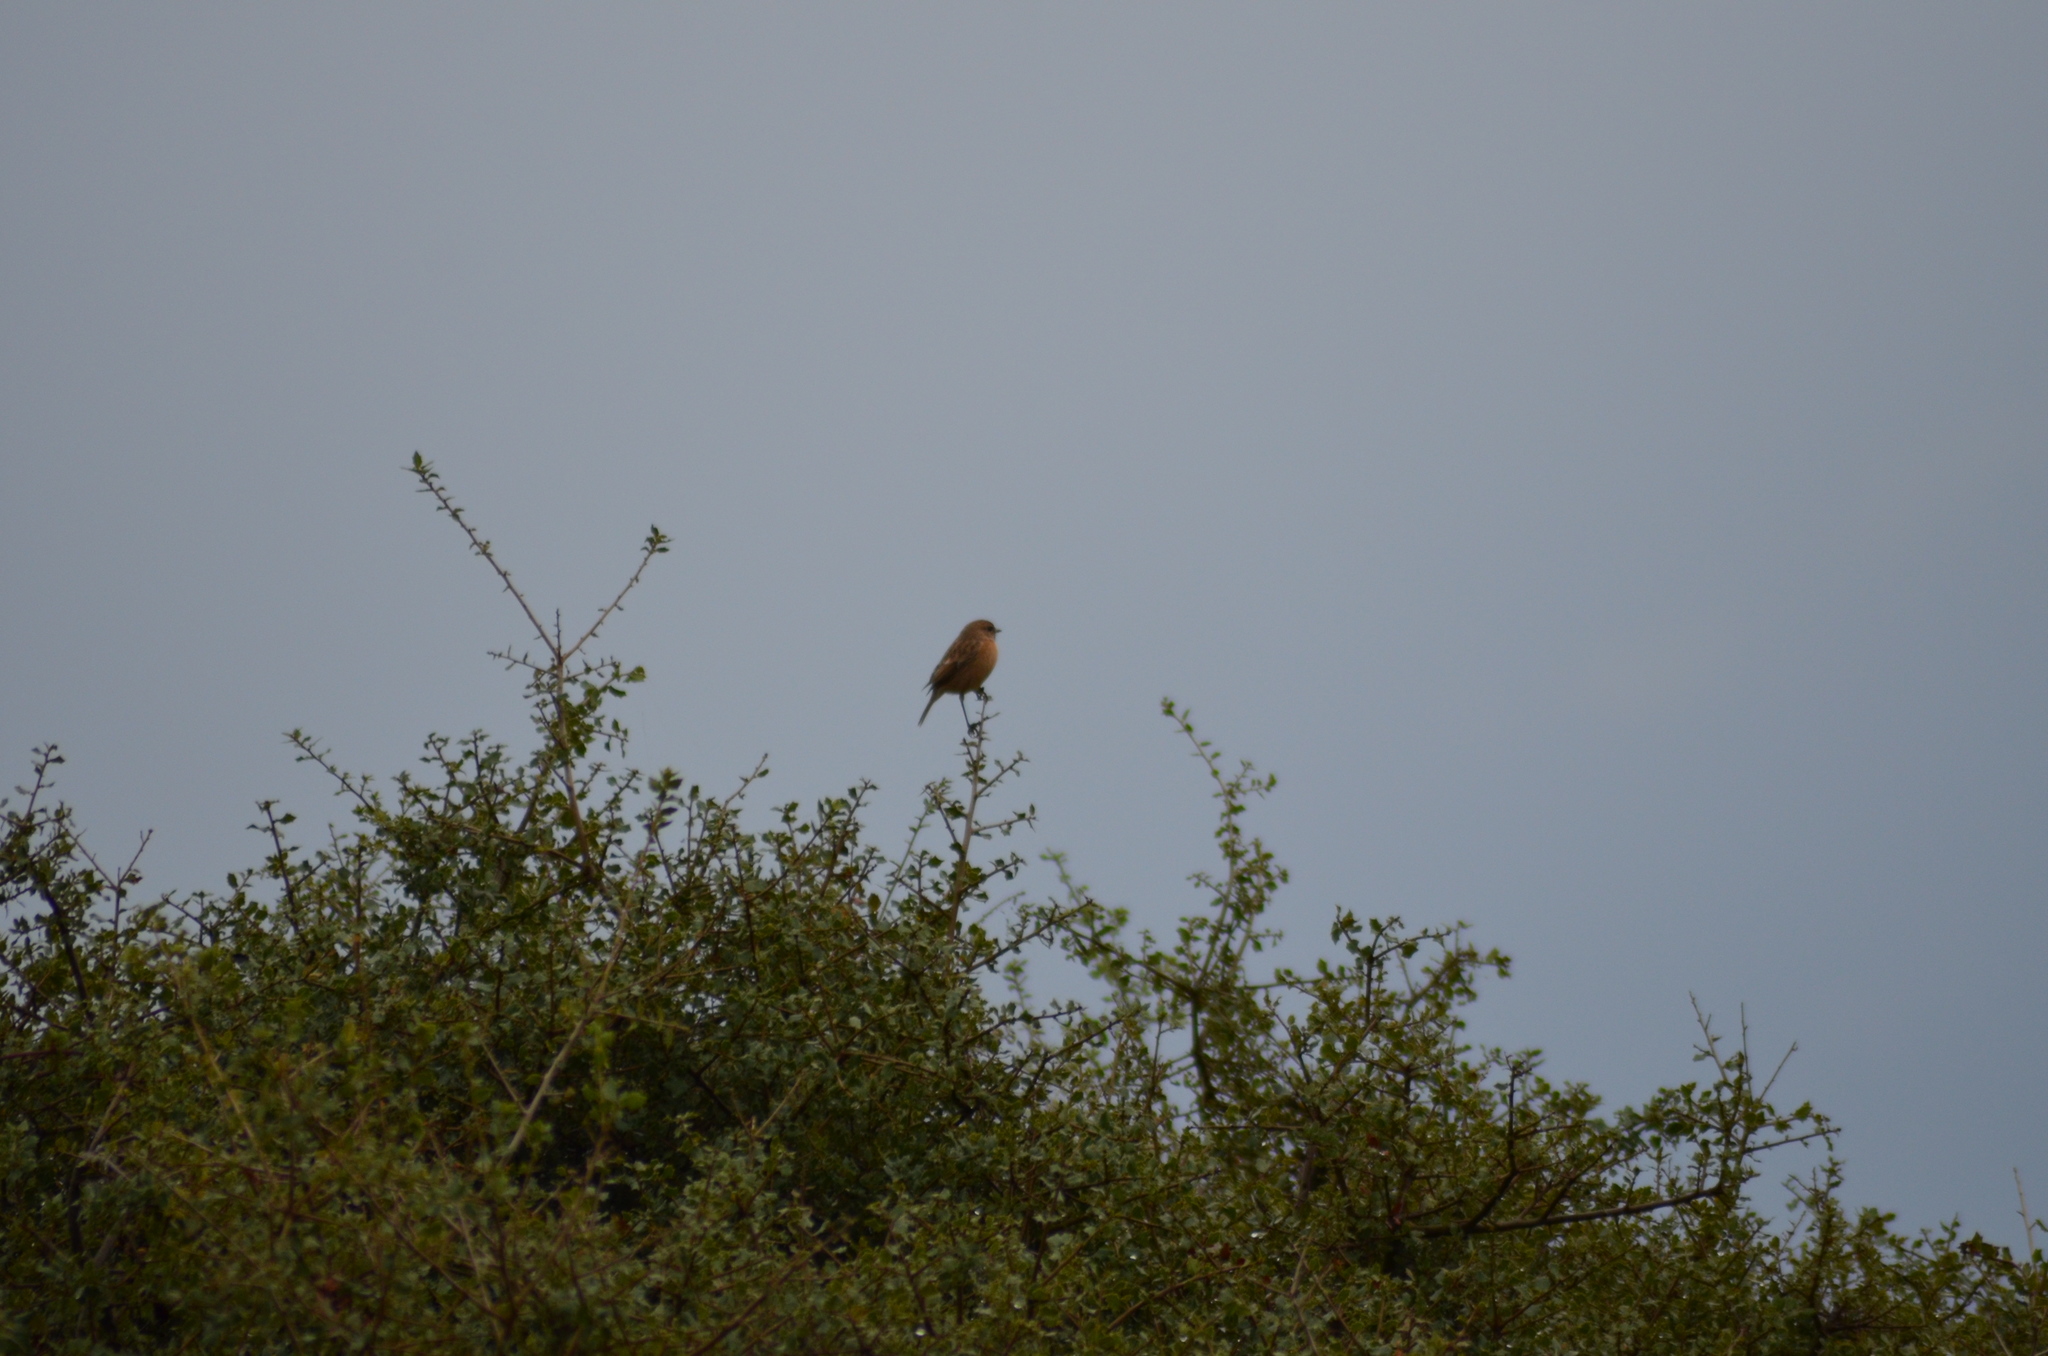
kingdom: Animalia
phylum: Chordata
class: Aves
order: Passeriformes
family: Muscicapidae
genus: Saxicola
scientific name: Saxicola rubicola
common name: European stonechat
